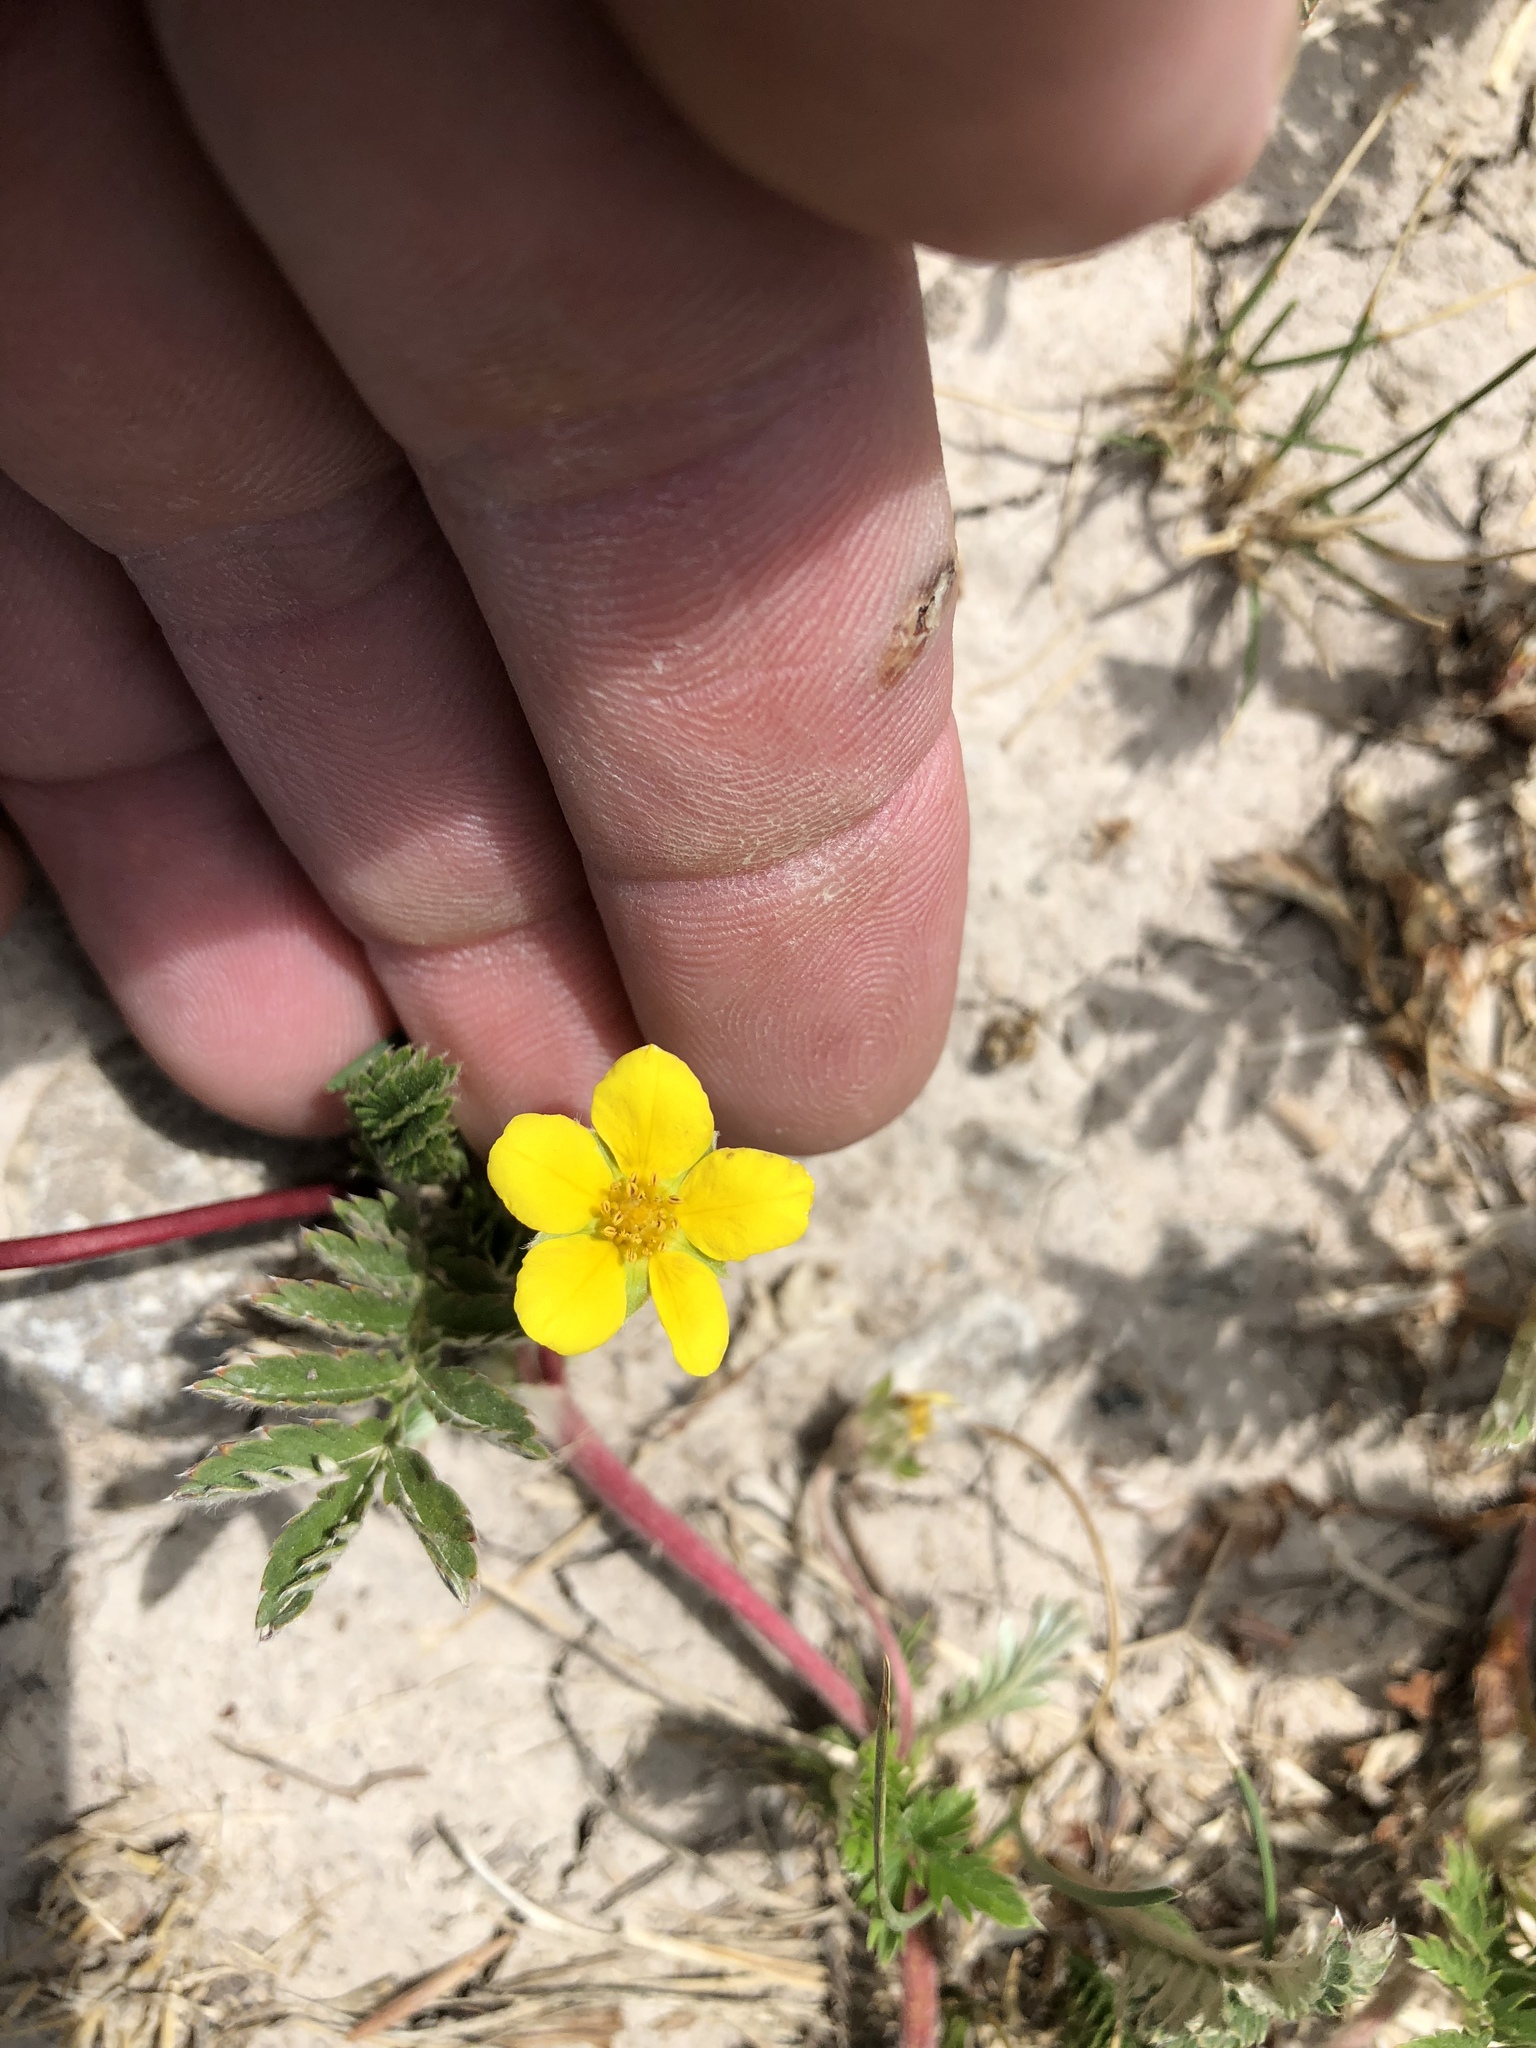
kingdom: Plantae
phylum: Tracheophyta
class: Magnoliopsida
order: Rosales
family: Rosaceae
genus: Argentina
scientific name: Argentina anserina
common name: Common silverweed
